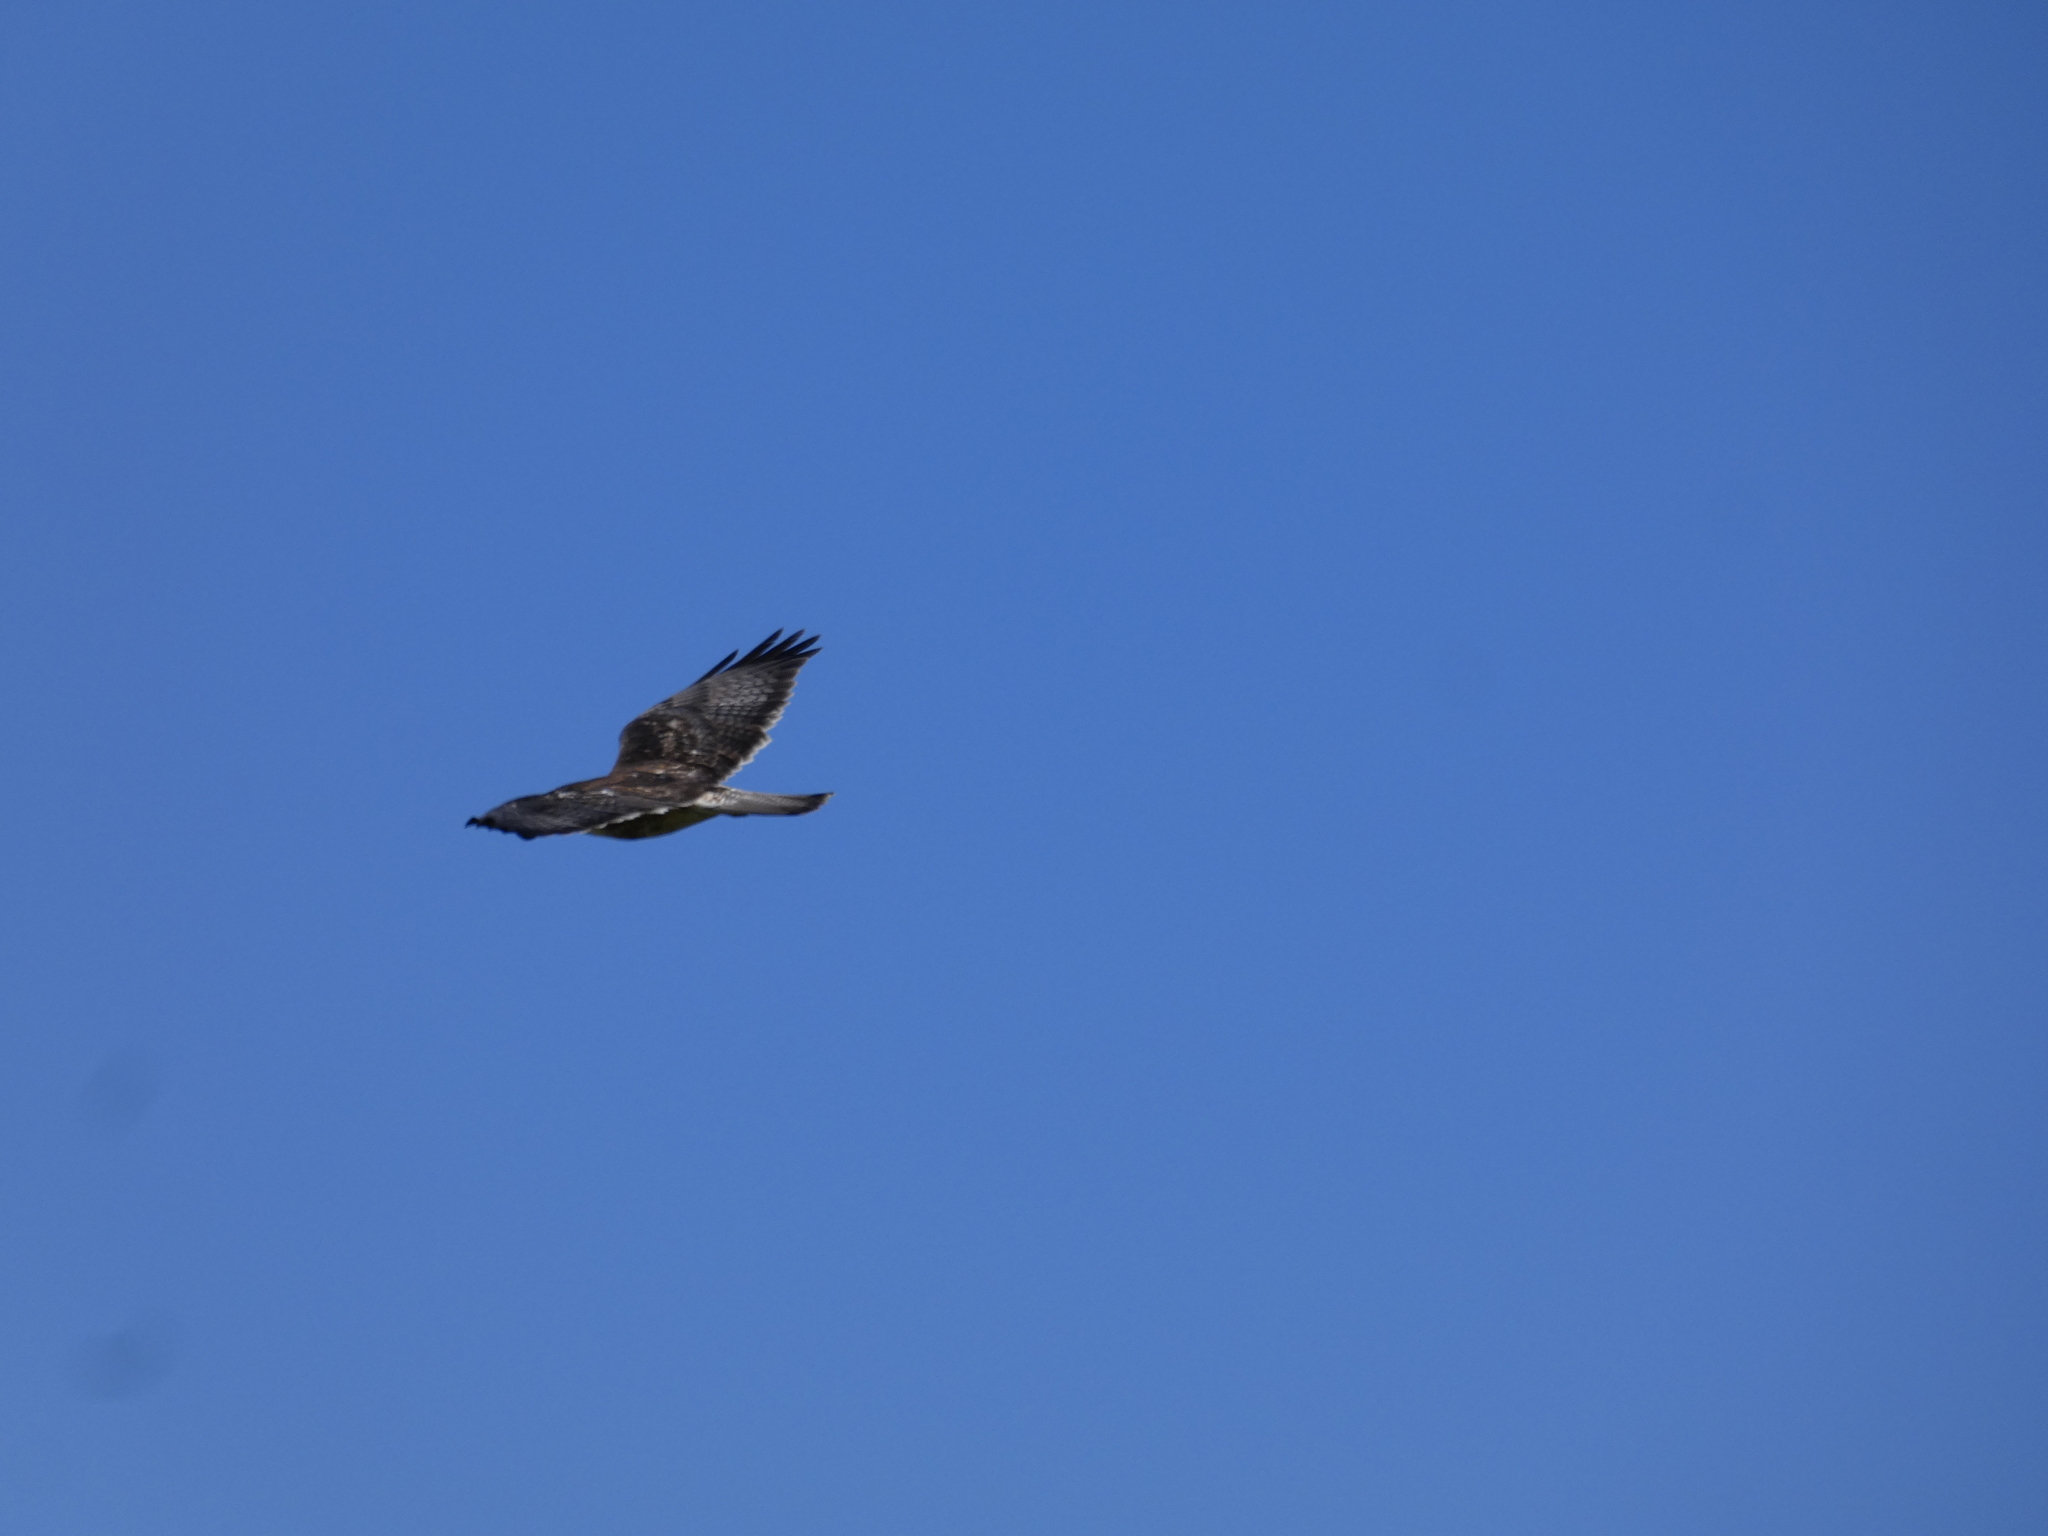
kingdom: Animalia
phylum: Chordata
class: Aves
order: Accipitriformes
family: Accipitridae
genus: Buteo
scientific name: Buteo polyosoma
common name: Variable hawk
